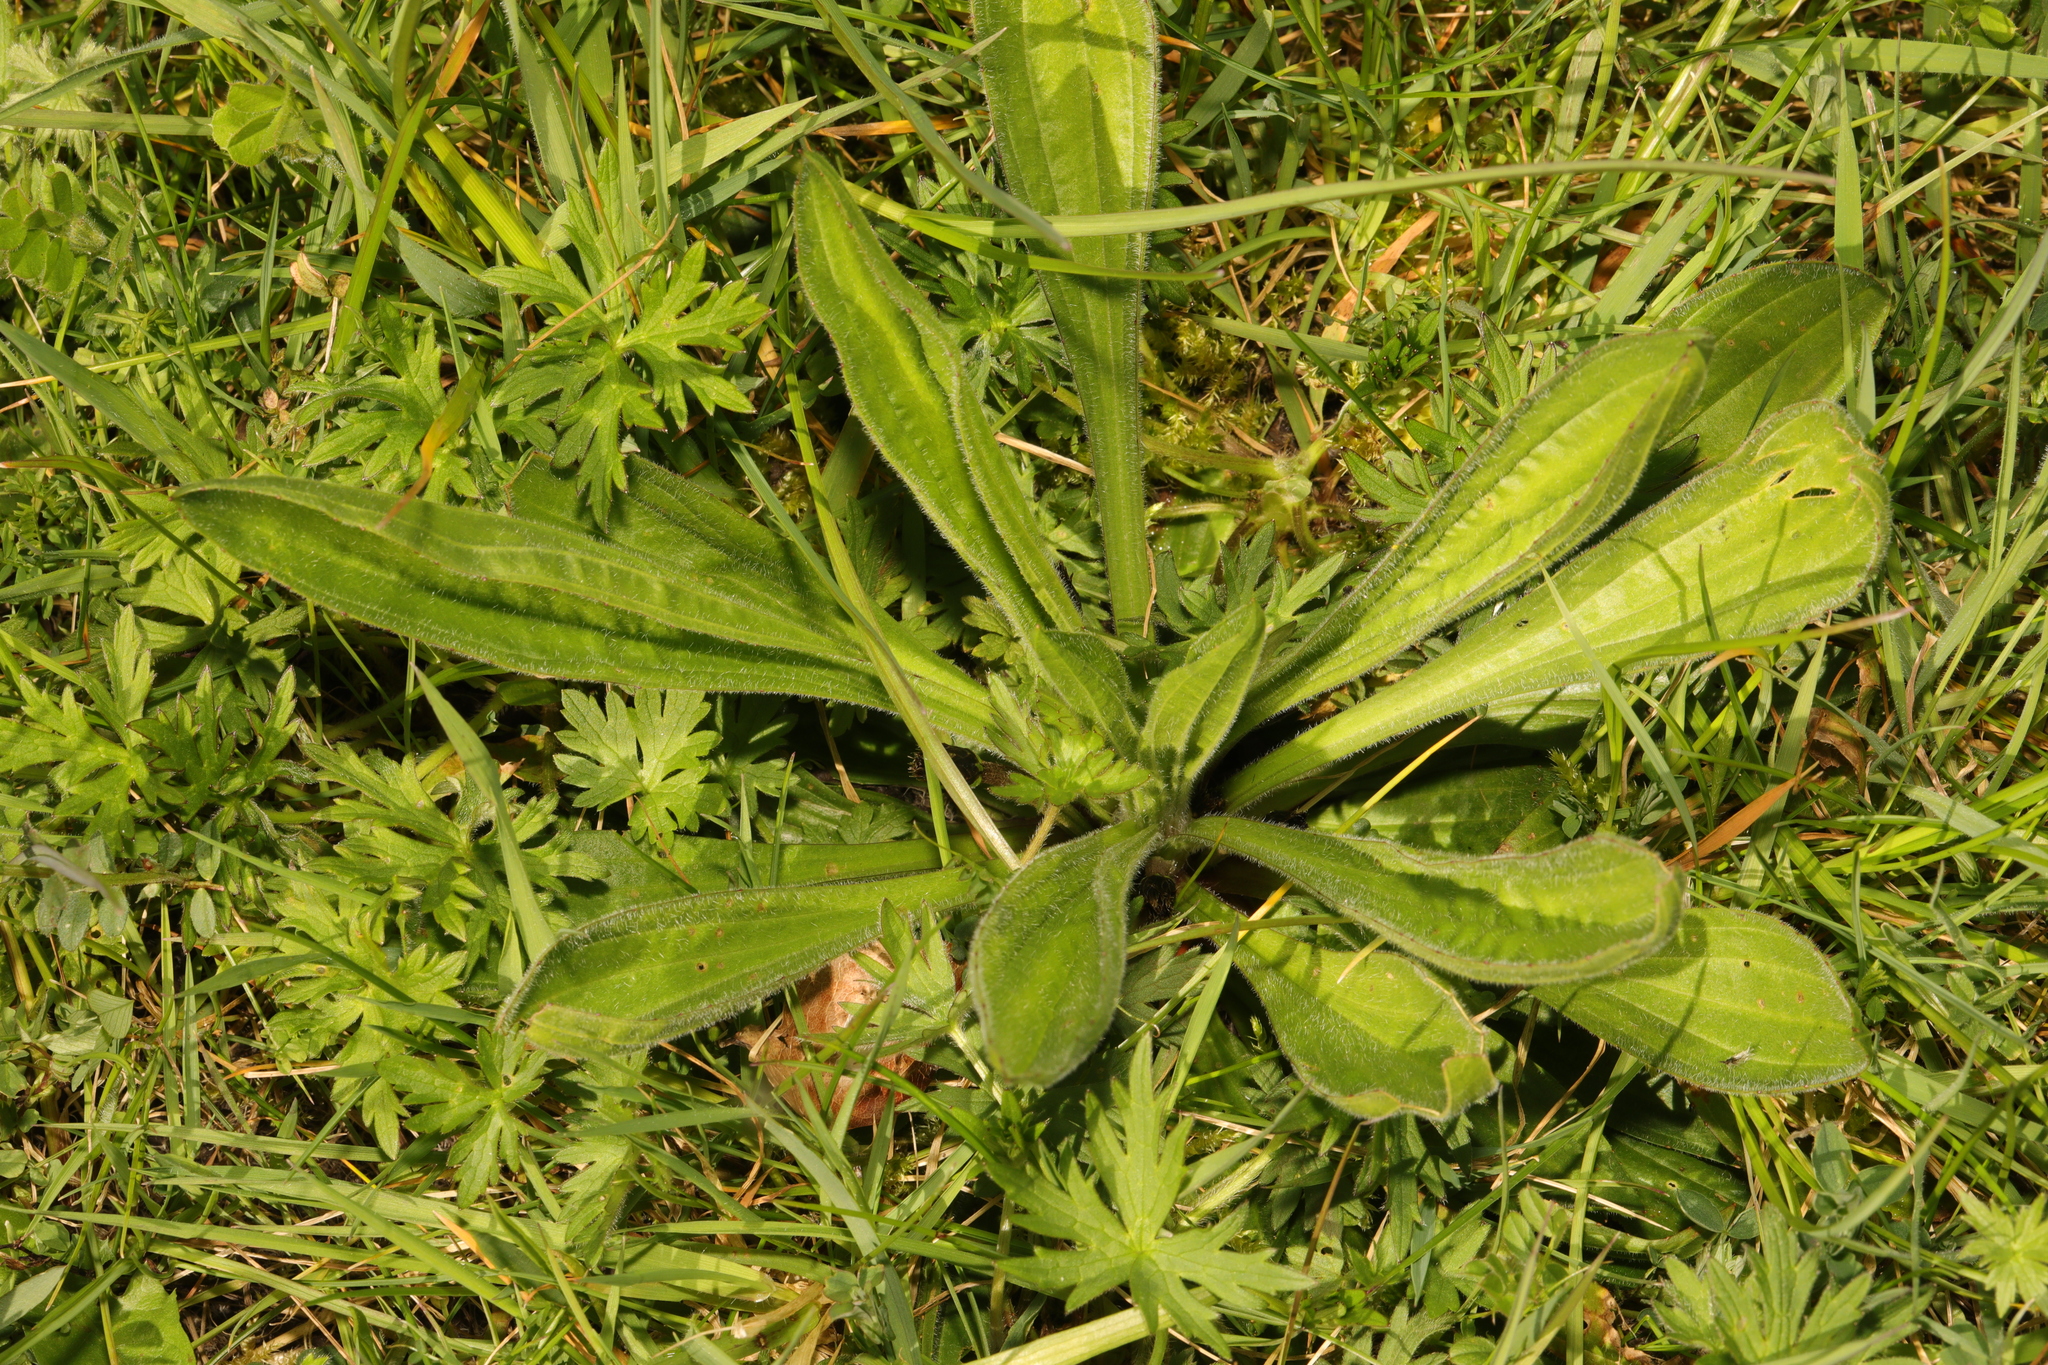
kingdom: Plantae
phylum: Tracheophyta
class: Magnoliopsida
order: Lamiales
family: Plantaginaceae
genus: Plantago
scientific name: Plantago lanceolata
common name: Ribwort plantain
